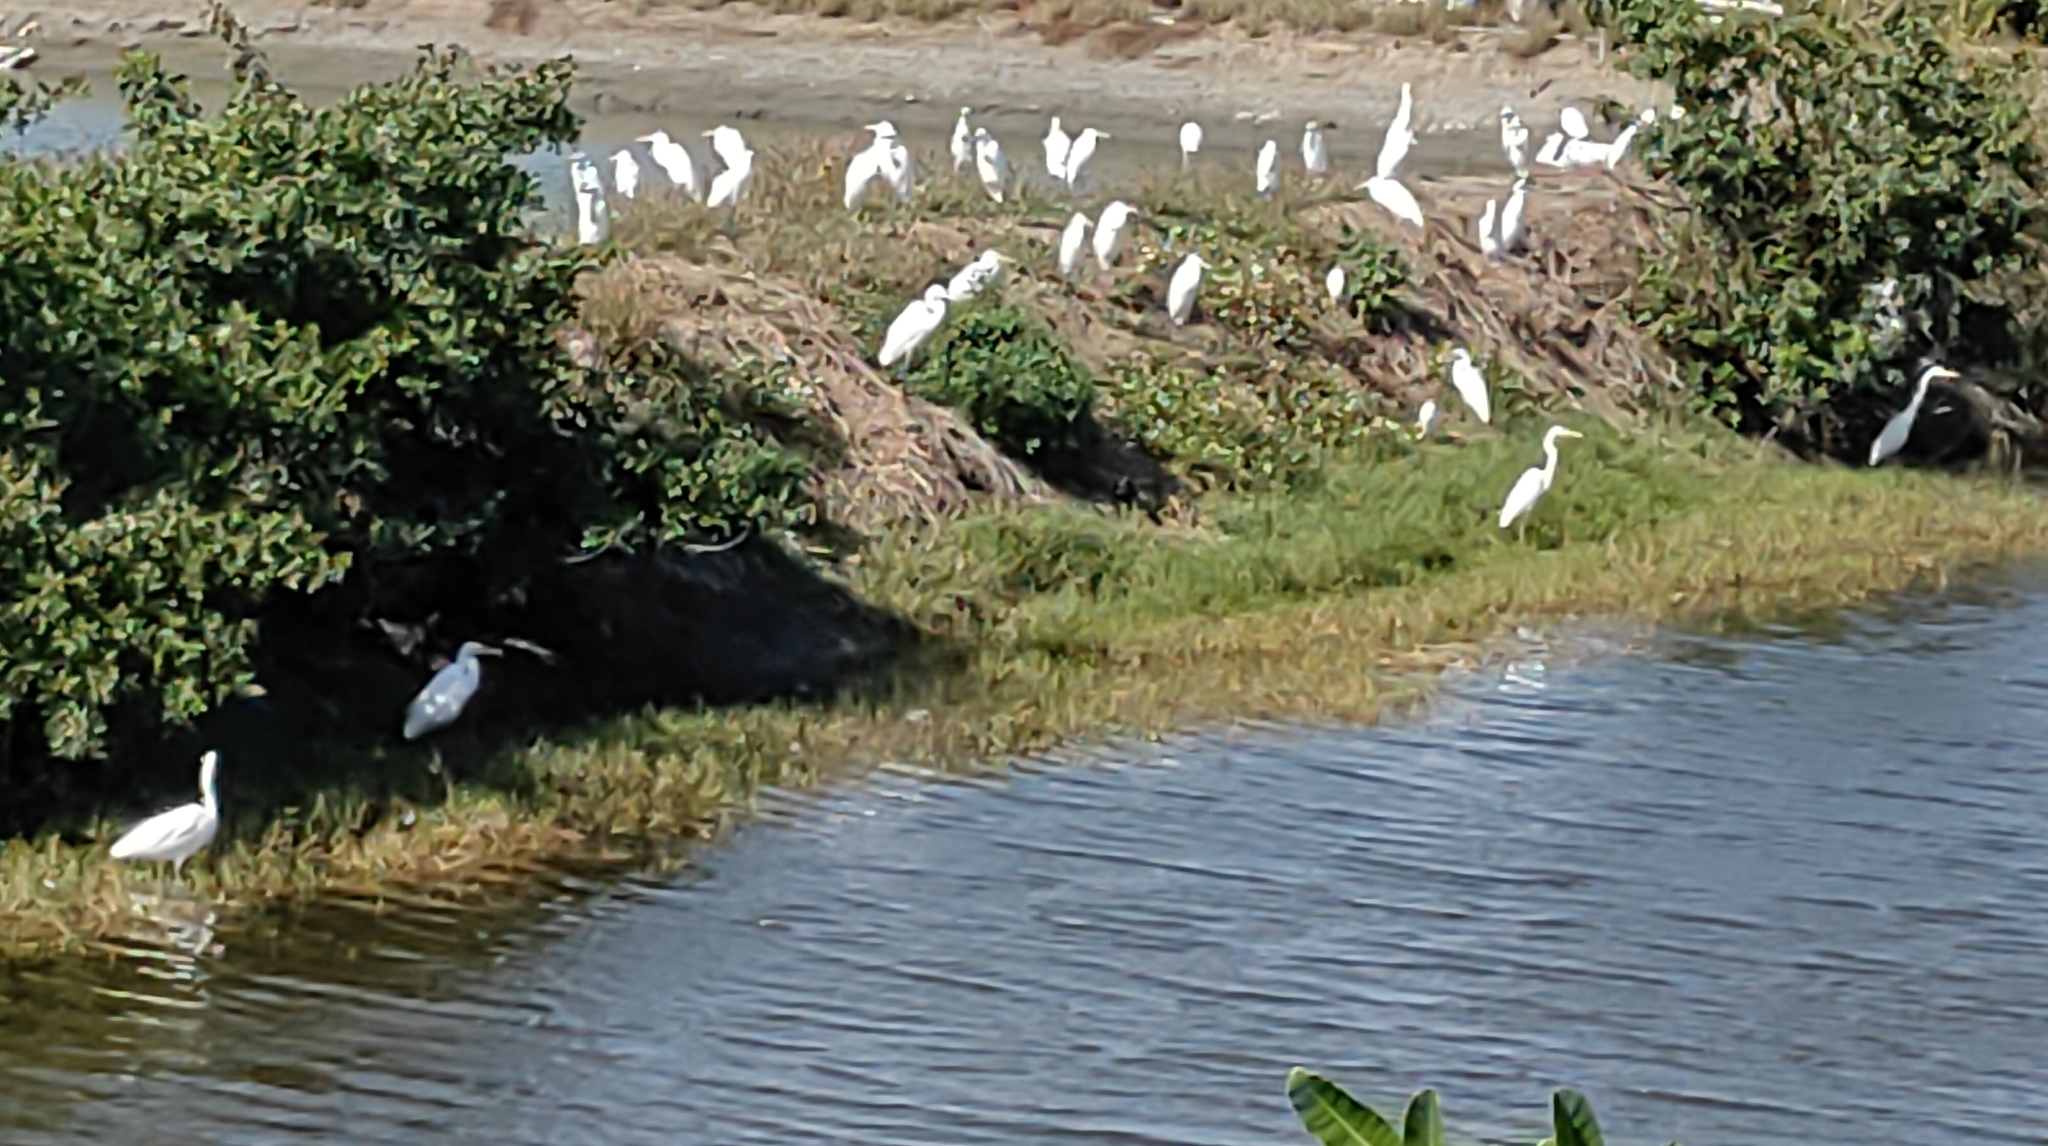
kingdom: Animalia
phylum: Chordata
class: Aves
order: Pelecaniformes
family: Ardeidae
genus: Ardea
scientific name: Ardea alba
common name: Great egret
